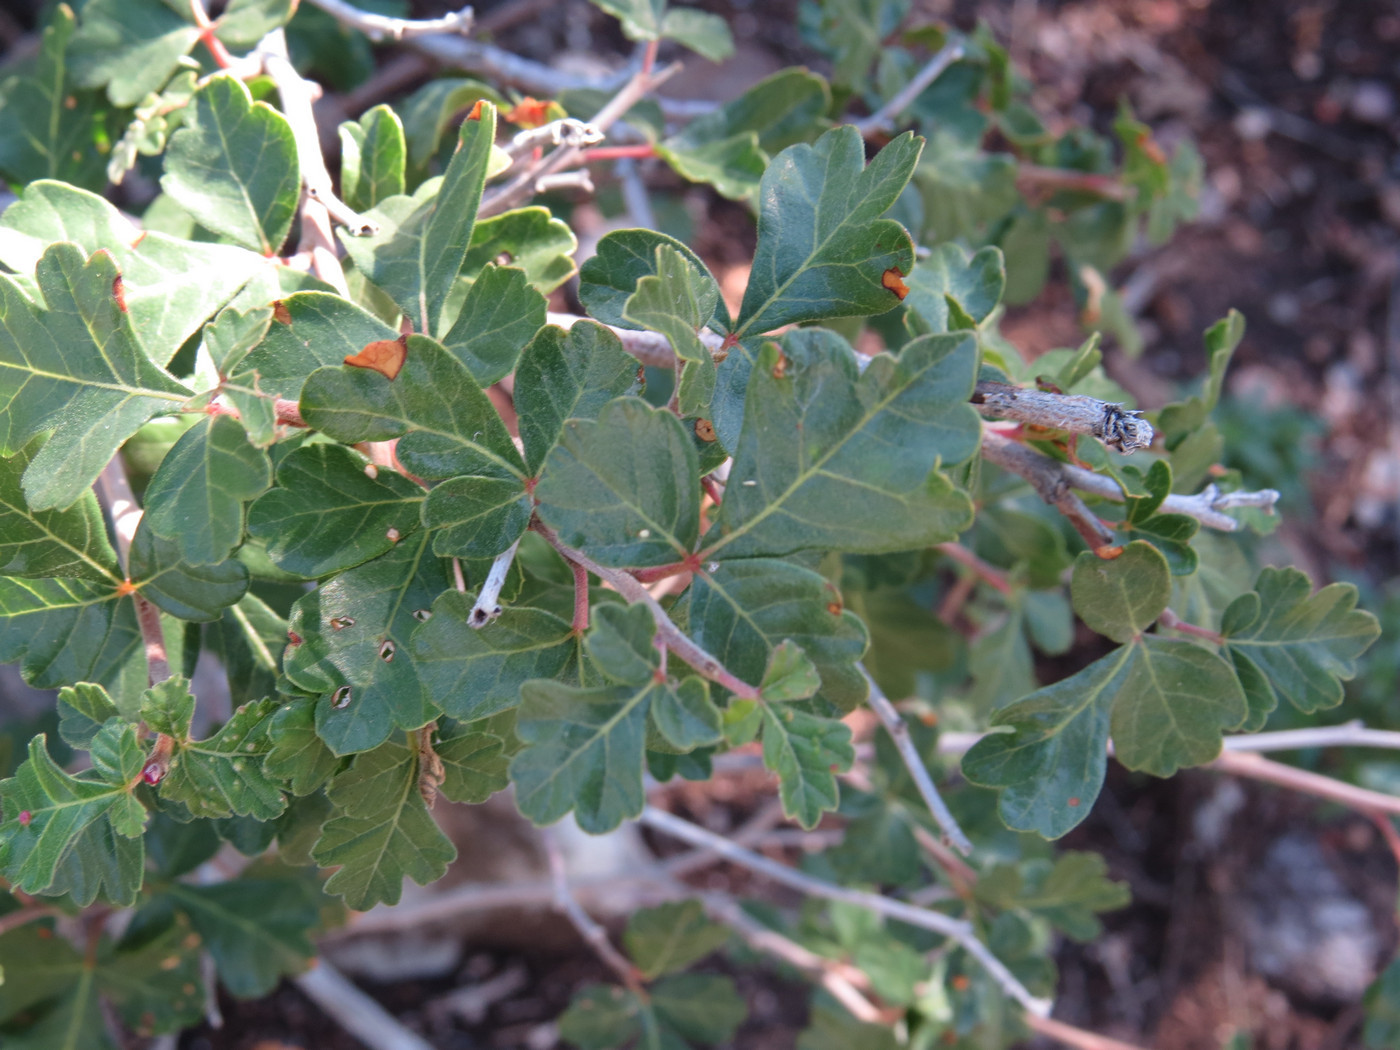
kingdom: Plantae
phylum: Tracheophyta
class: Magnoliopsida
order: Sapindales
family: Anacardiaceae
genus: Rhus
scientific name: Rhus aromatica
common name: Aromatic sumac
